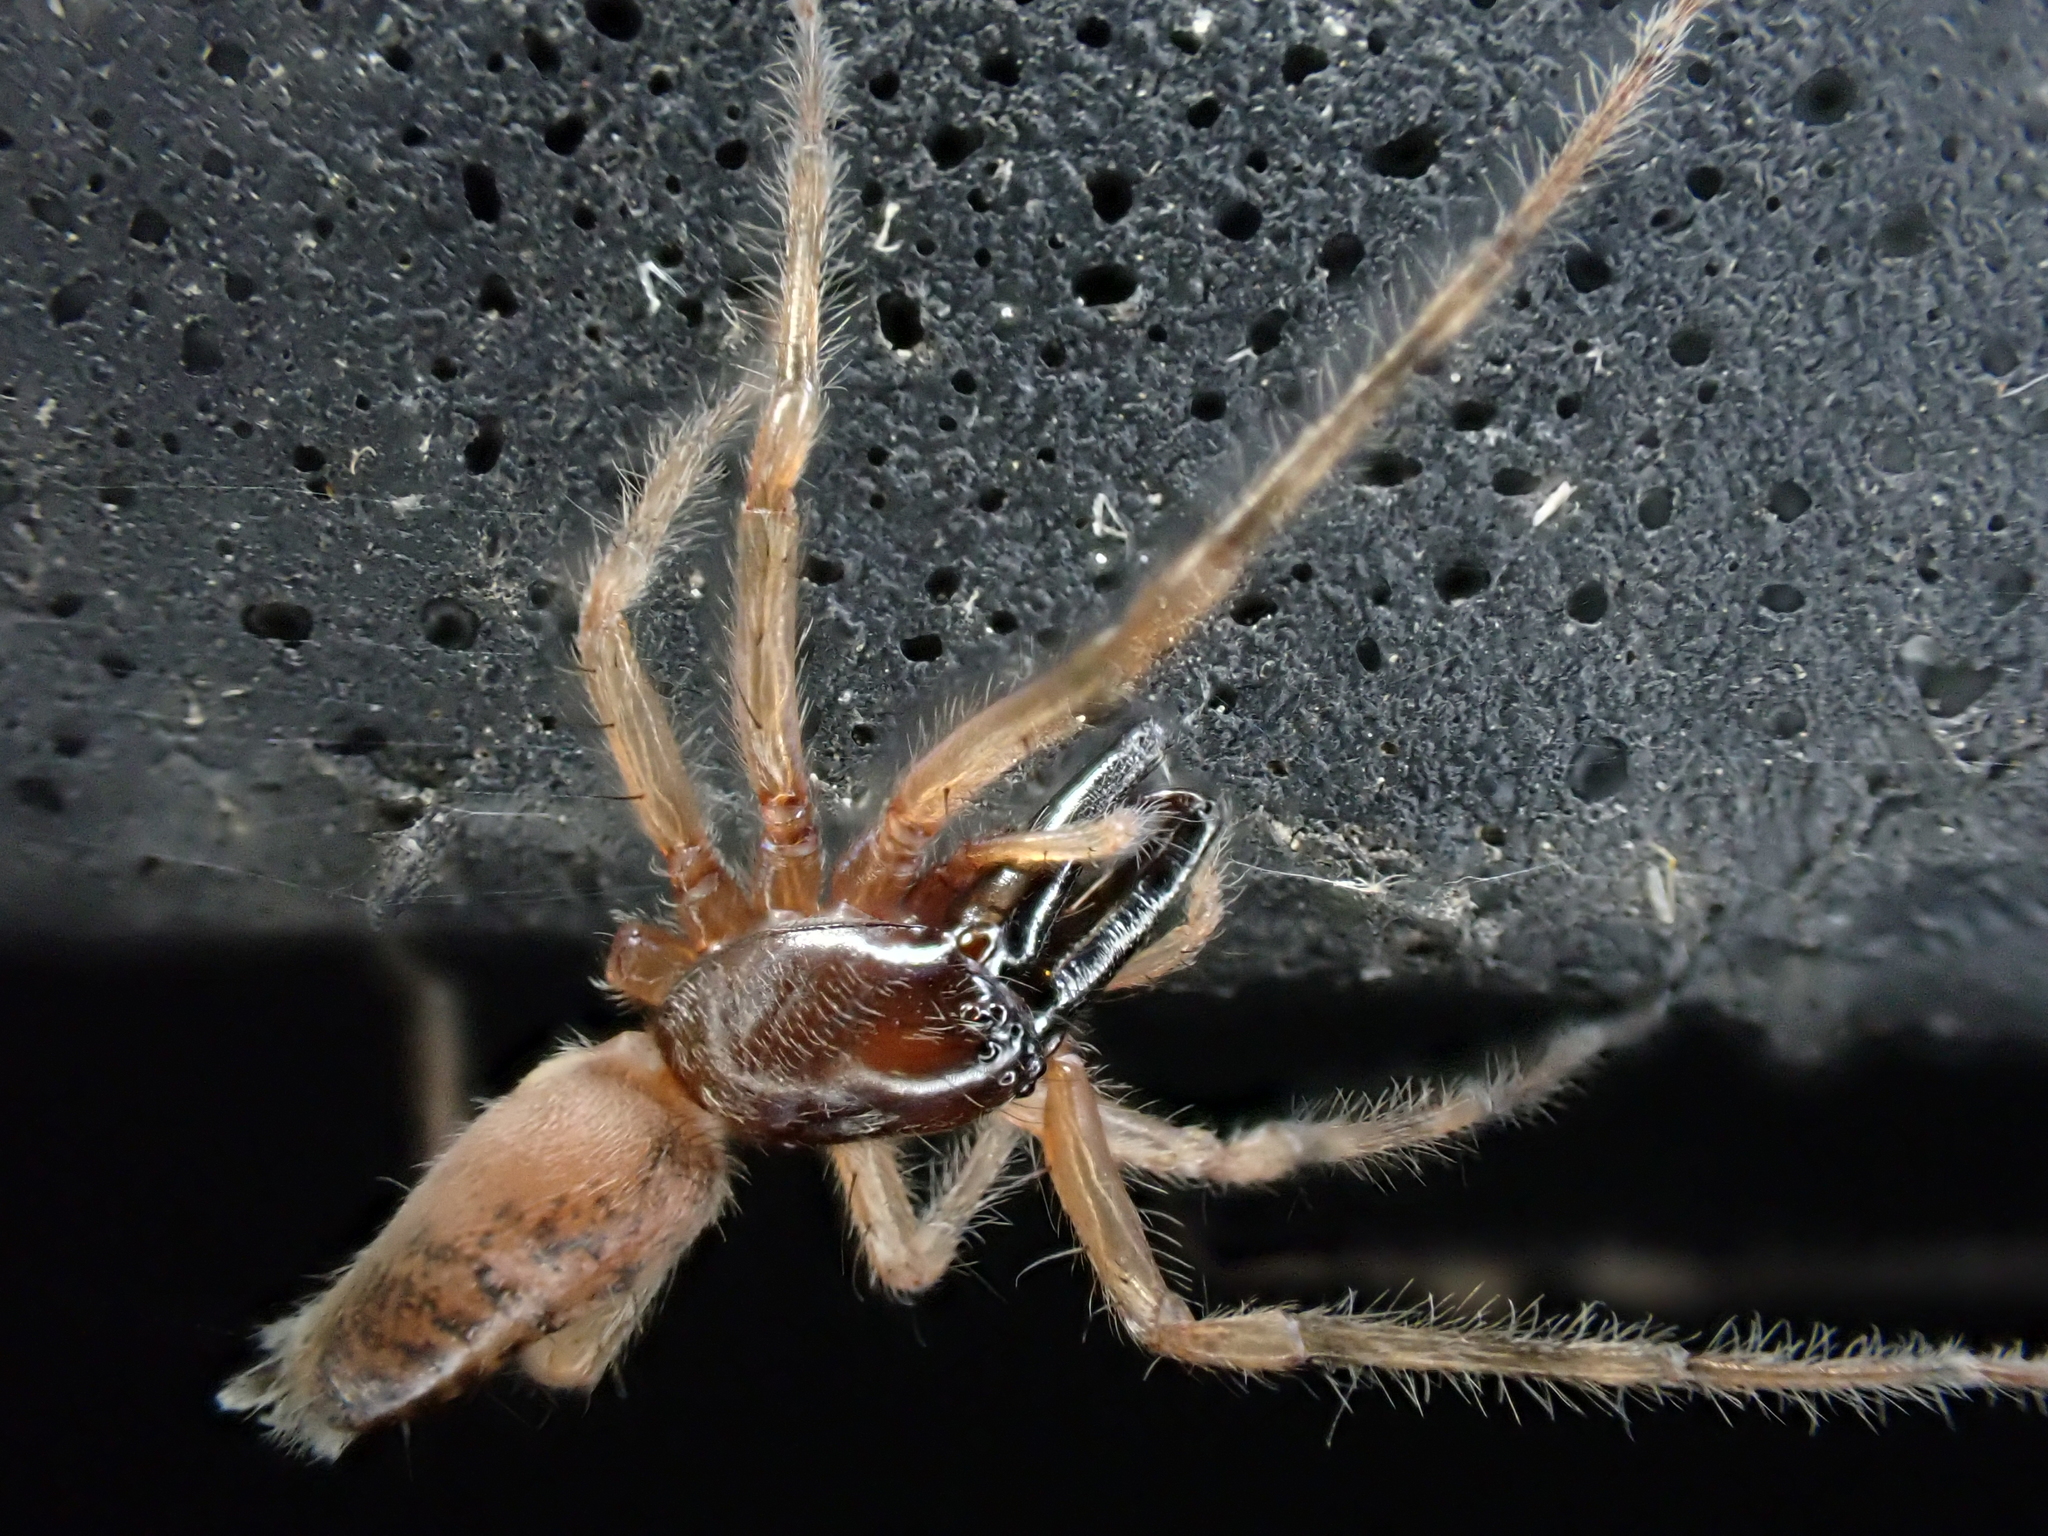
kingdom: Animalia
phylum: Arthropoda
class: Arachnida
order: Araneae
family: Anyphaenidae
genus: Lupettiana
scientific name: Lupettiana mordax
